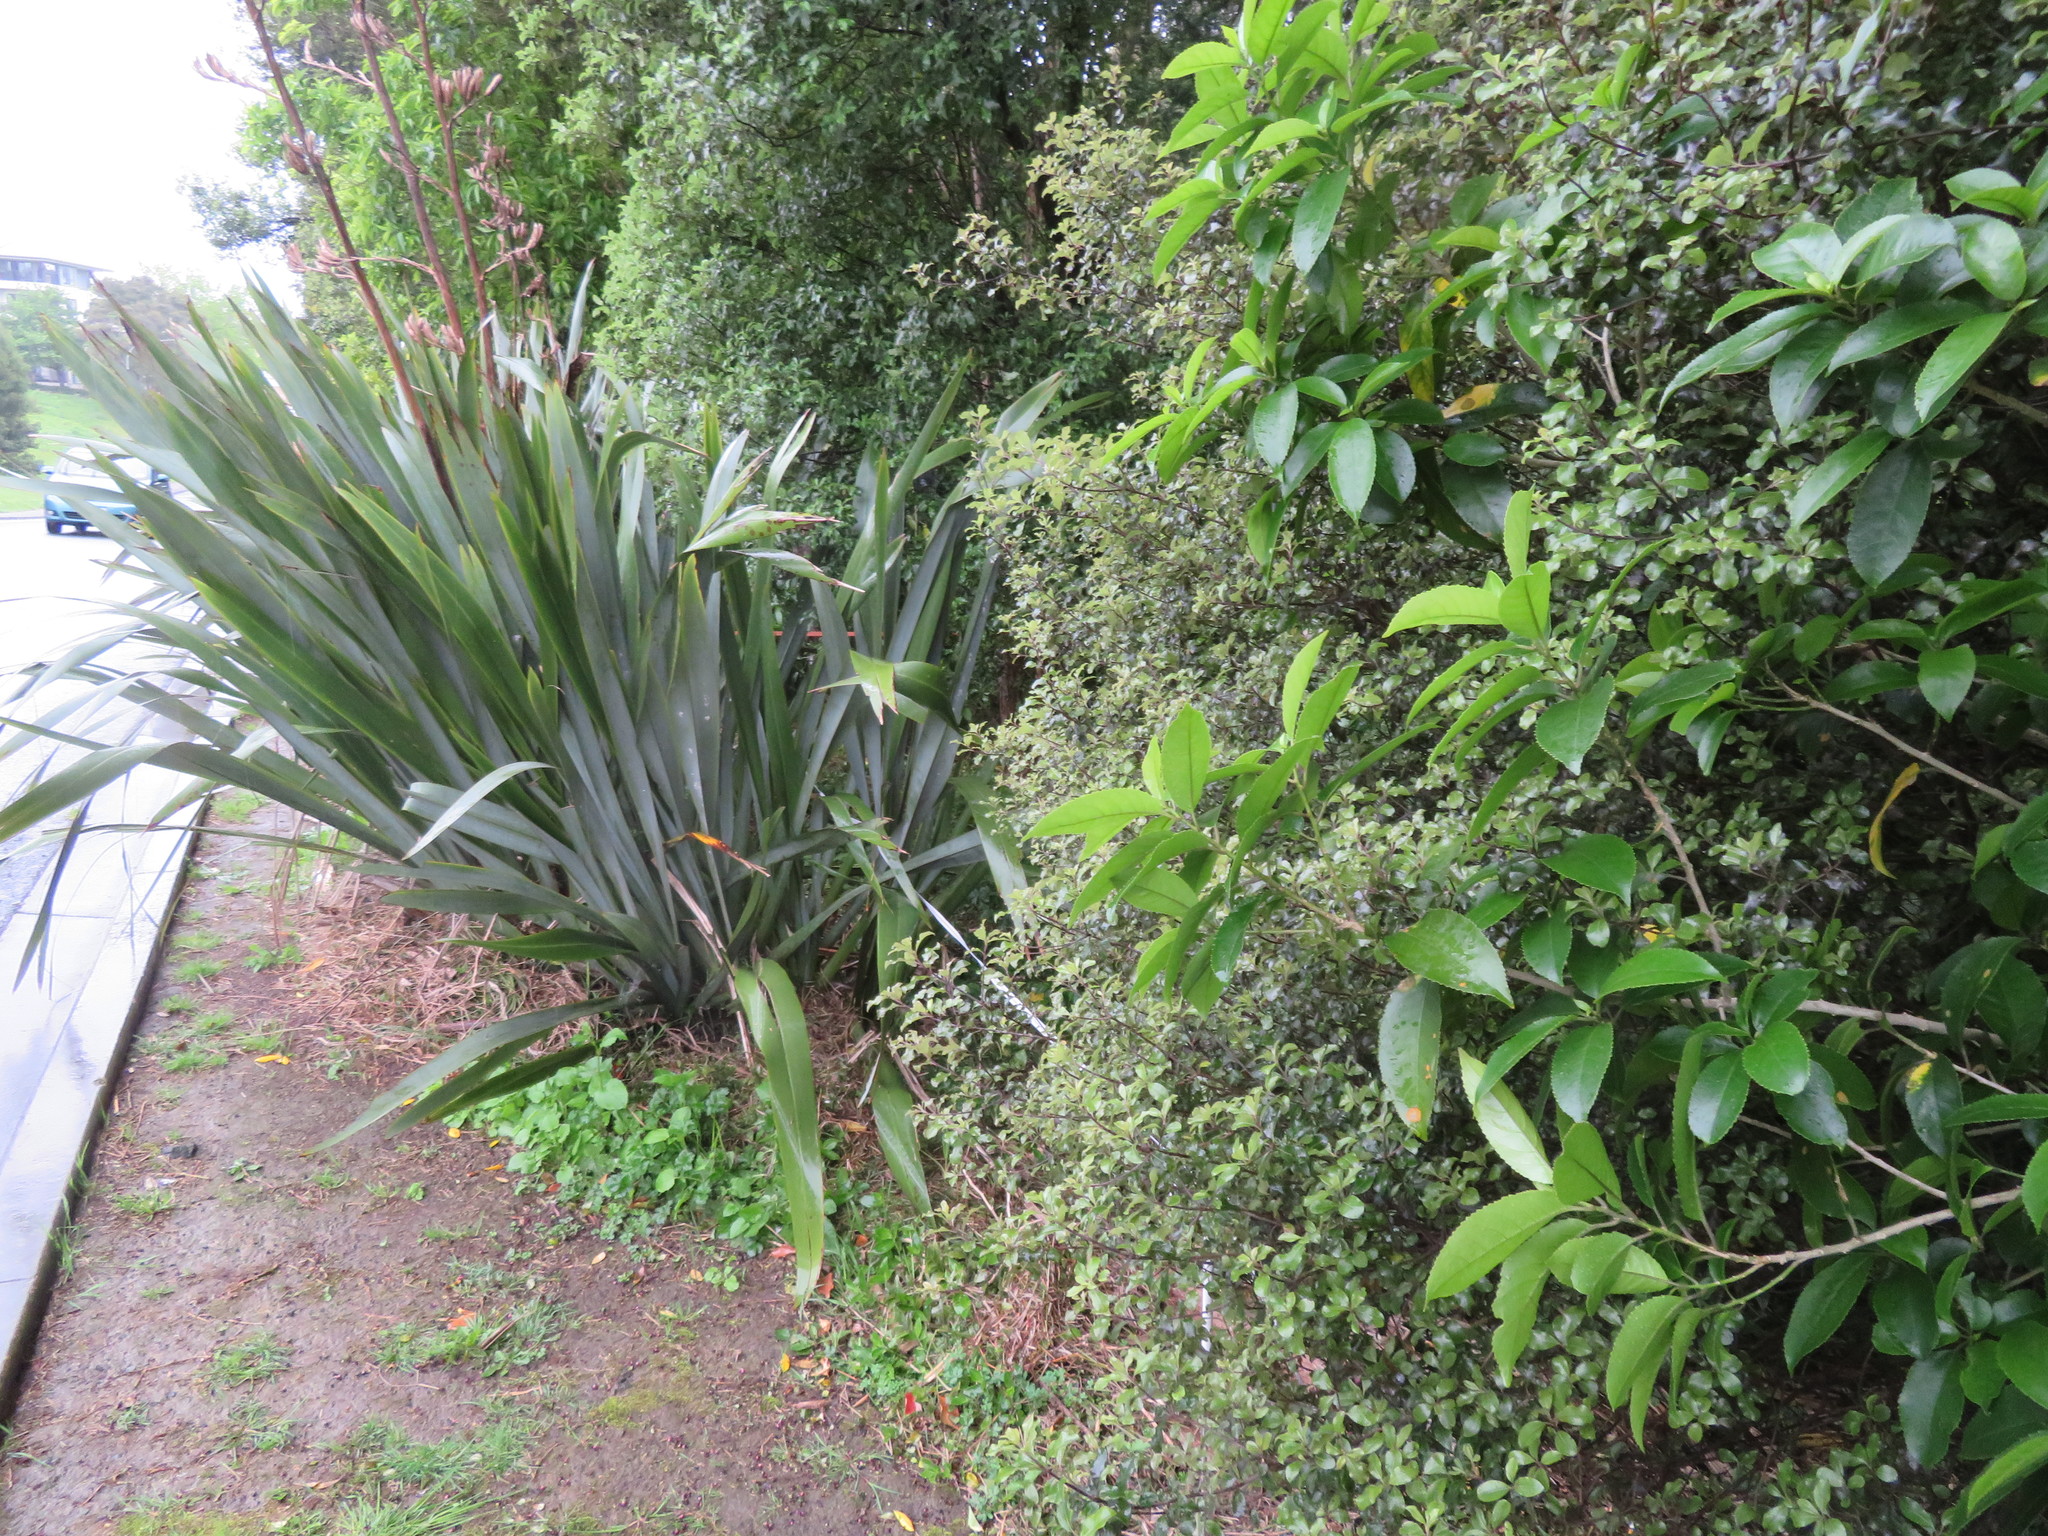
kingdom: Plantae
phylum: Tracheophyta
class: Magnoliopsida
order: Malpighiales
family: Violaceae
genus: Melicytus
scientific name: Melicytus ramiflorus
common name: Mahoe
